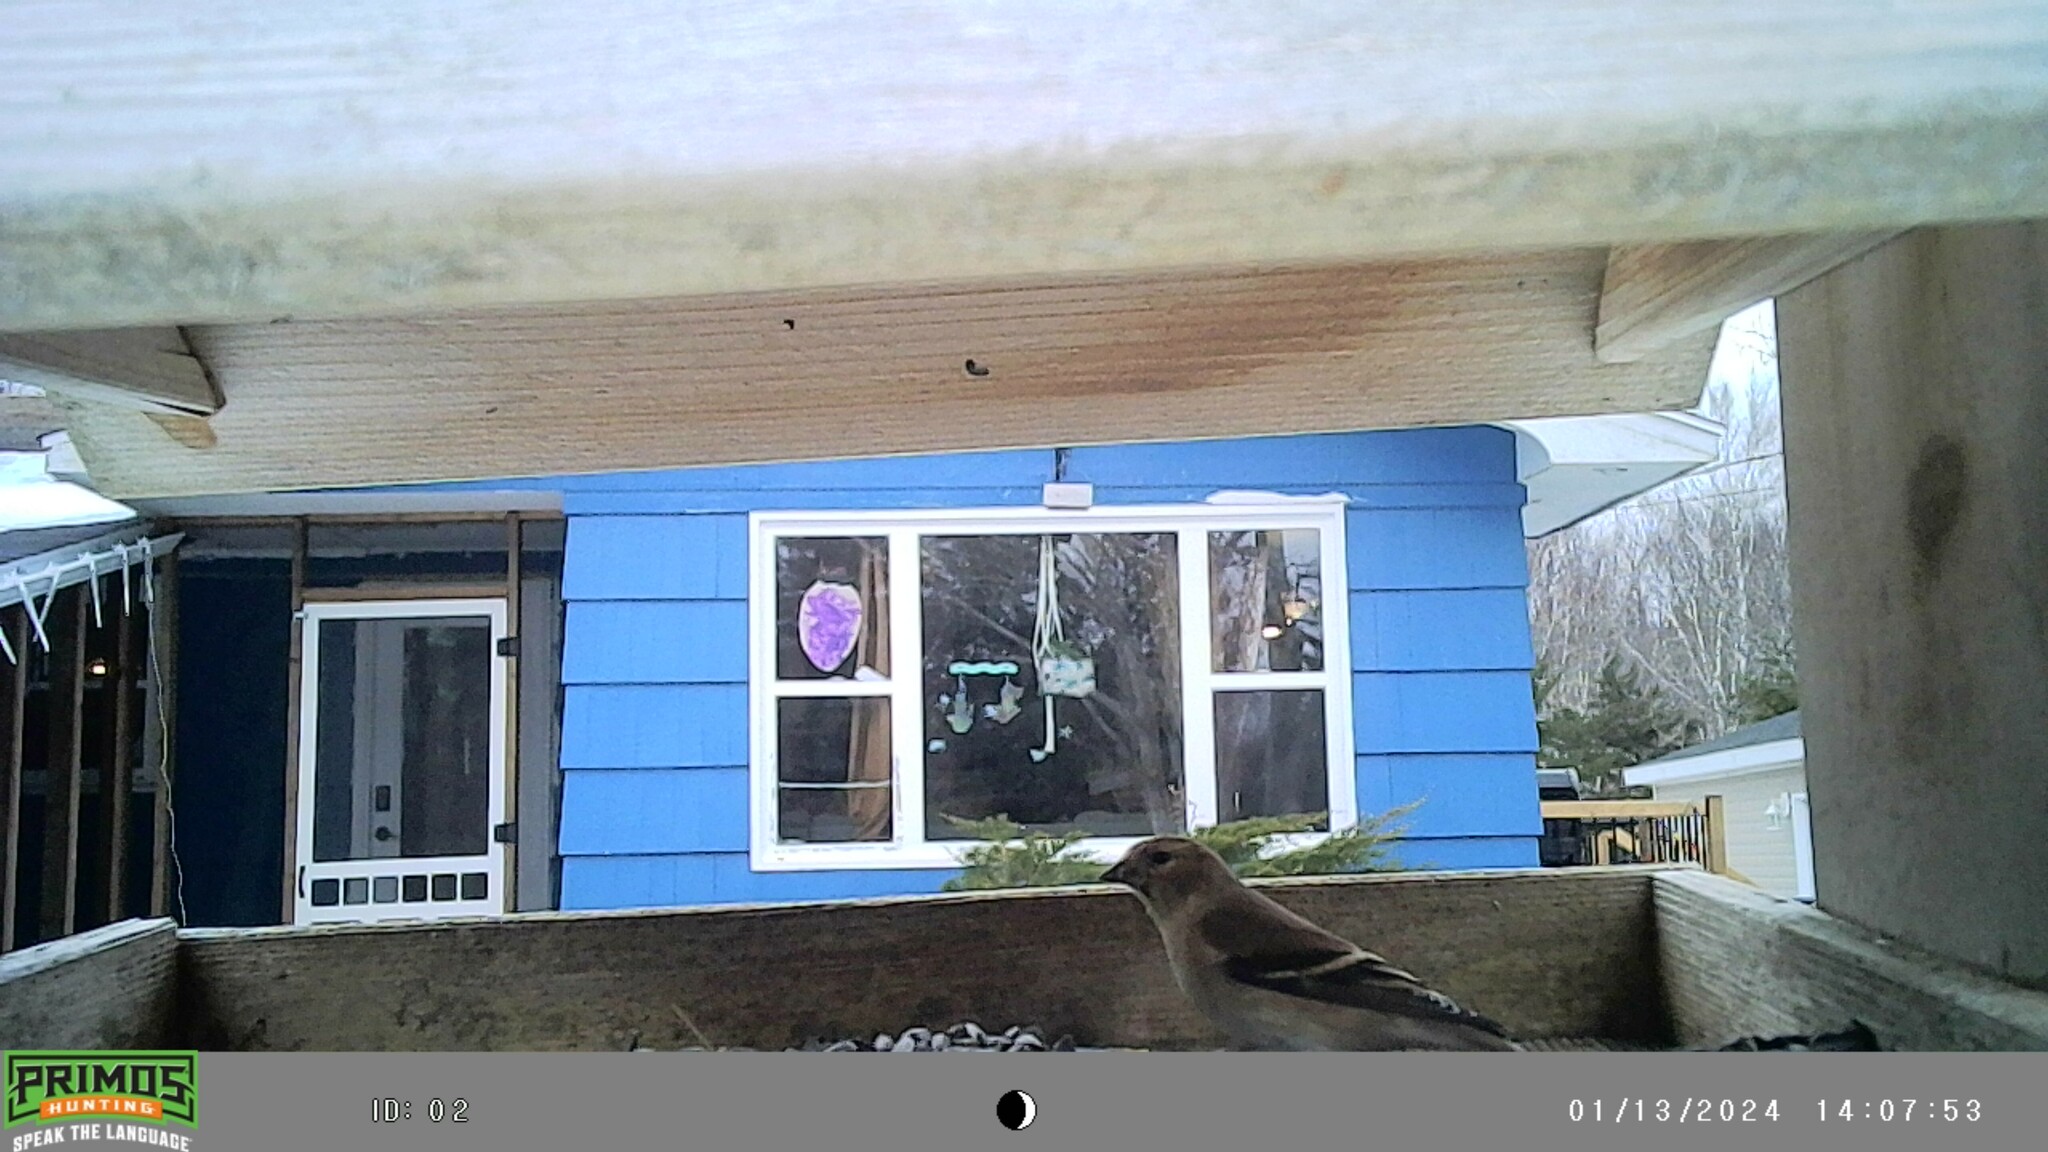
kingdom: Animalia
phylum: Chordata
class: Aves
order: Passeriformes
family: Fringillidae
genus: Spinus
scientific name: Spinus tristis
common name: American goldfinch
